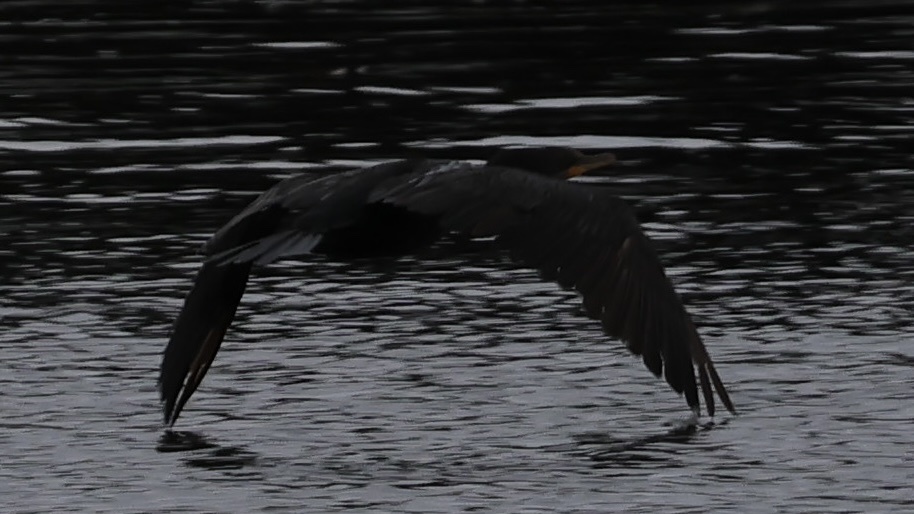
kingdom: Animalia
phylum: Chordata
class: Aves
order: Suliformes
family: Phalacrocoracidae
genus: Phalacrocorax
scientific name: Phalacrocorax auritus
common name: Double-crested cormorant
